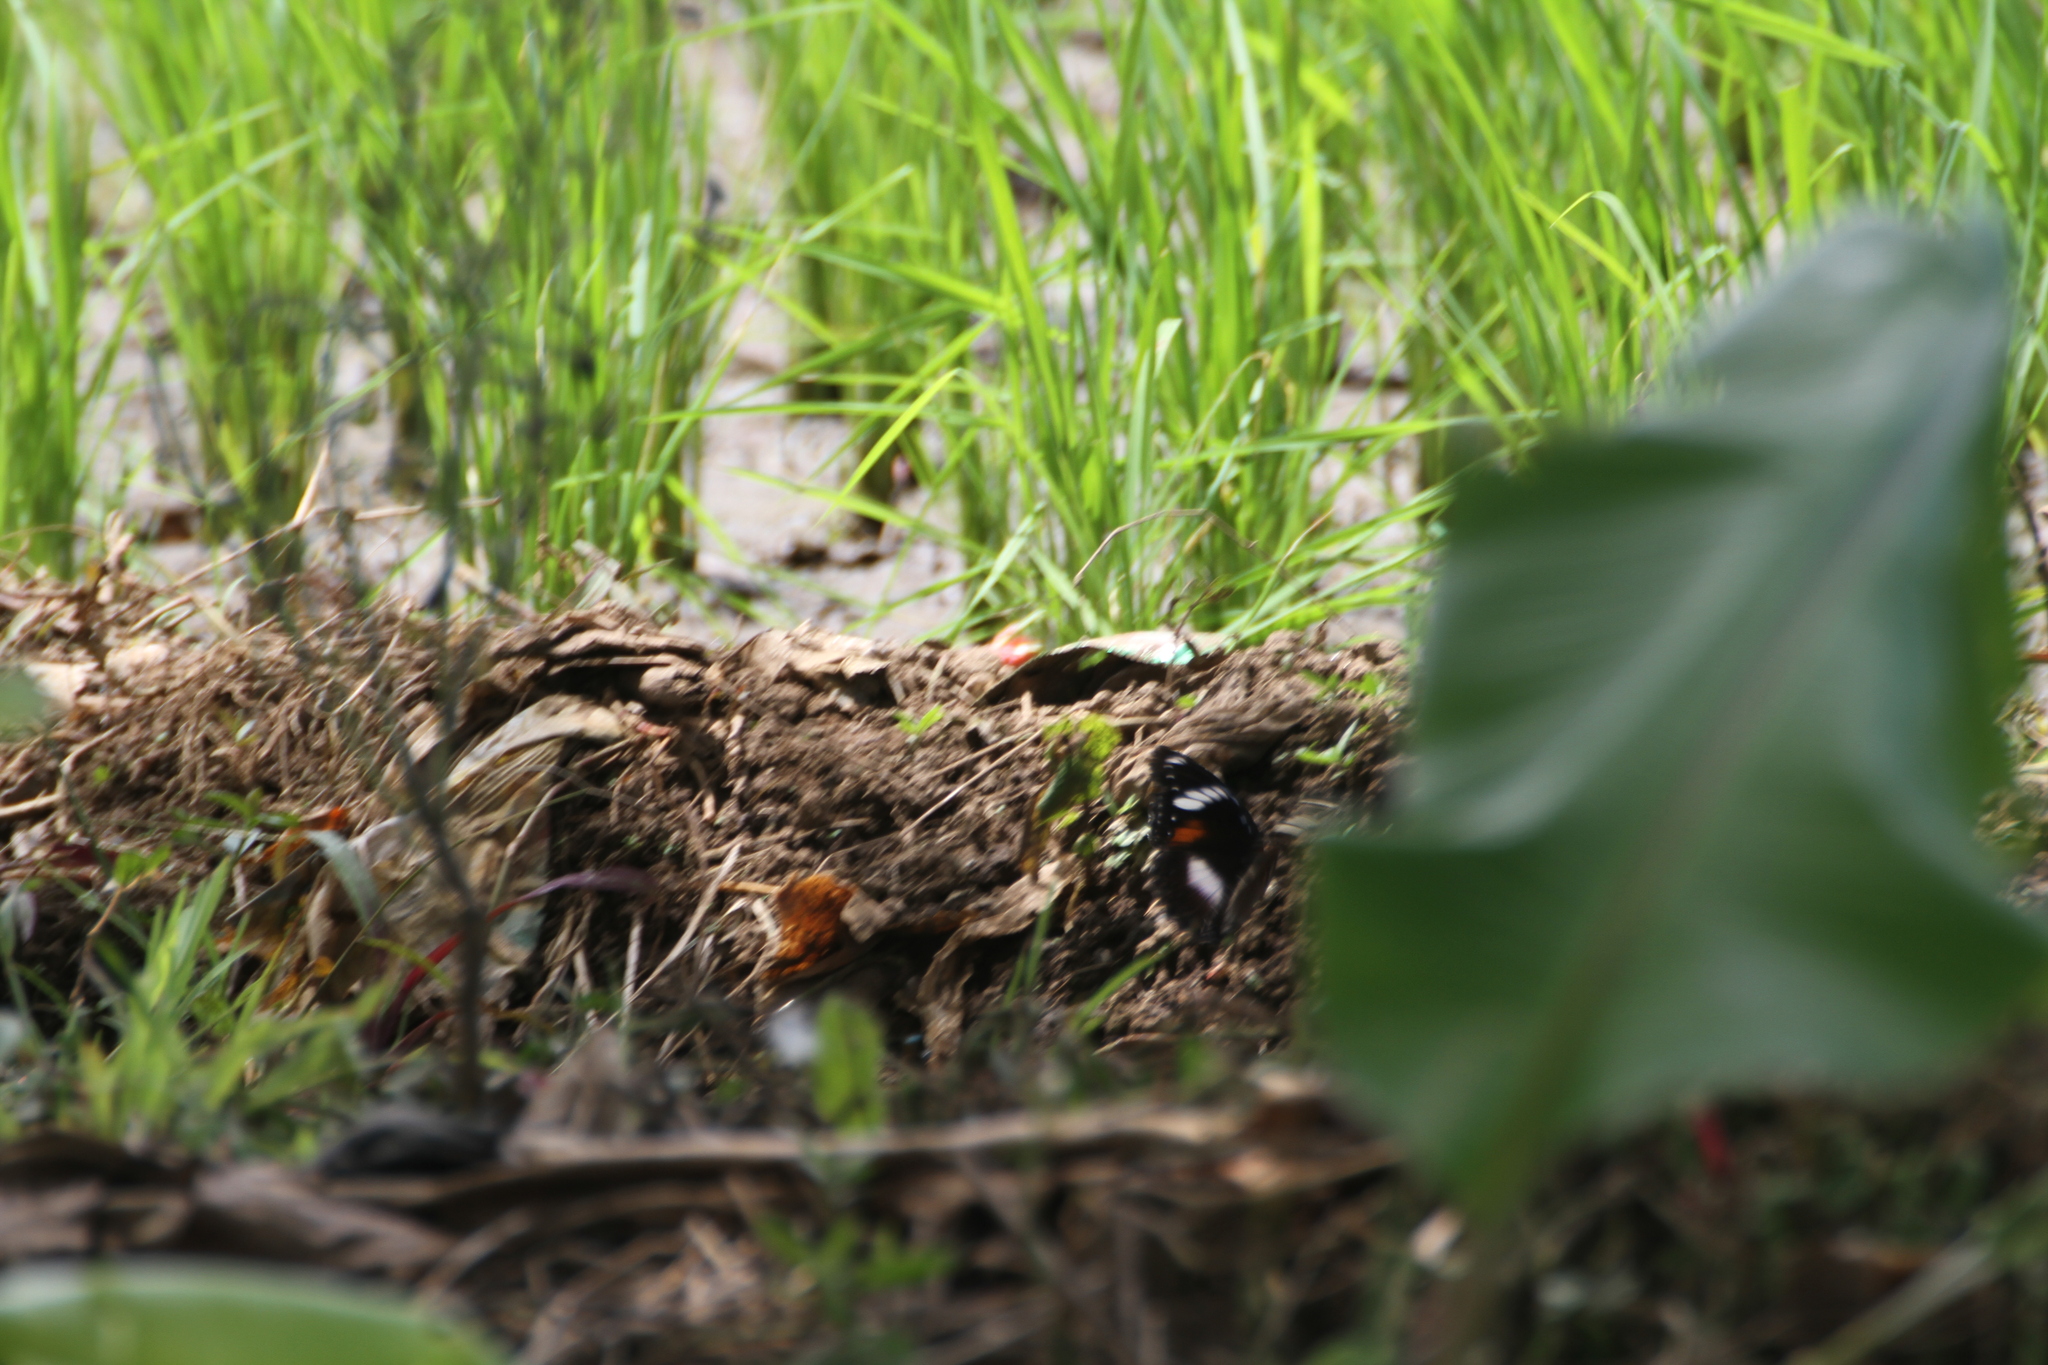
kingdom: Animalia
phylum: Arthropoda
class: Insecta
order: Lepidoptera
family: Nymphalidae
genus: Hypolimnas
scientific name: Hypolimnas bolina
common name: Great eggfly
